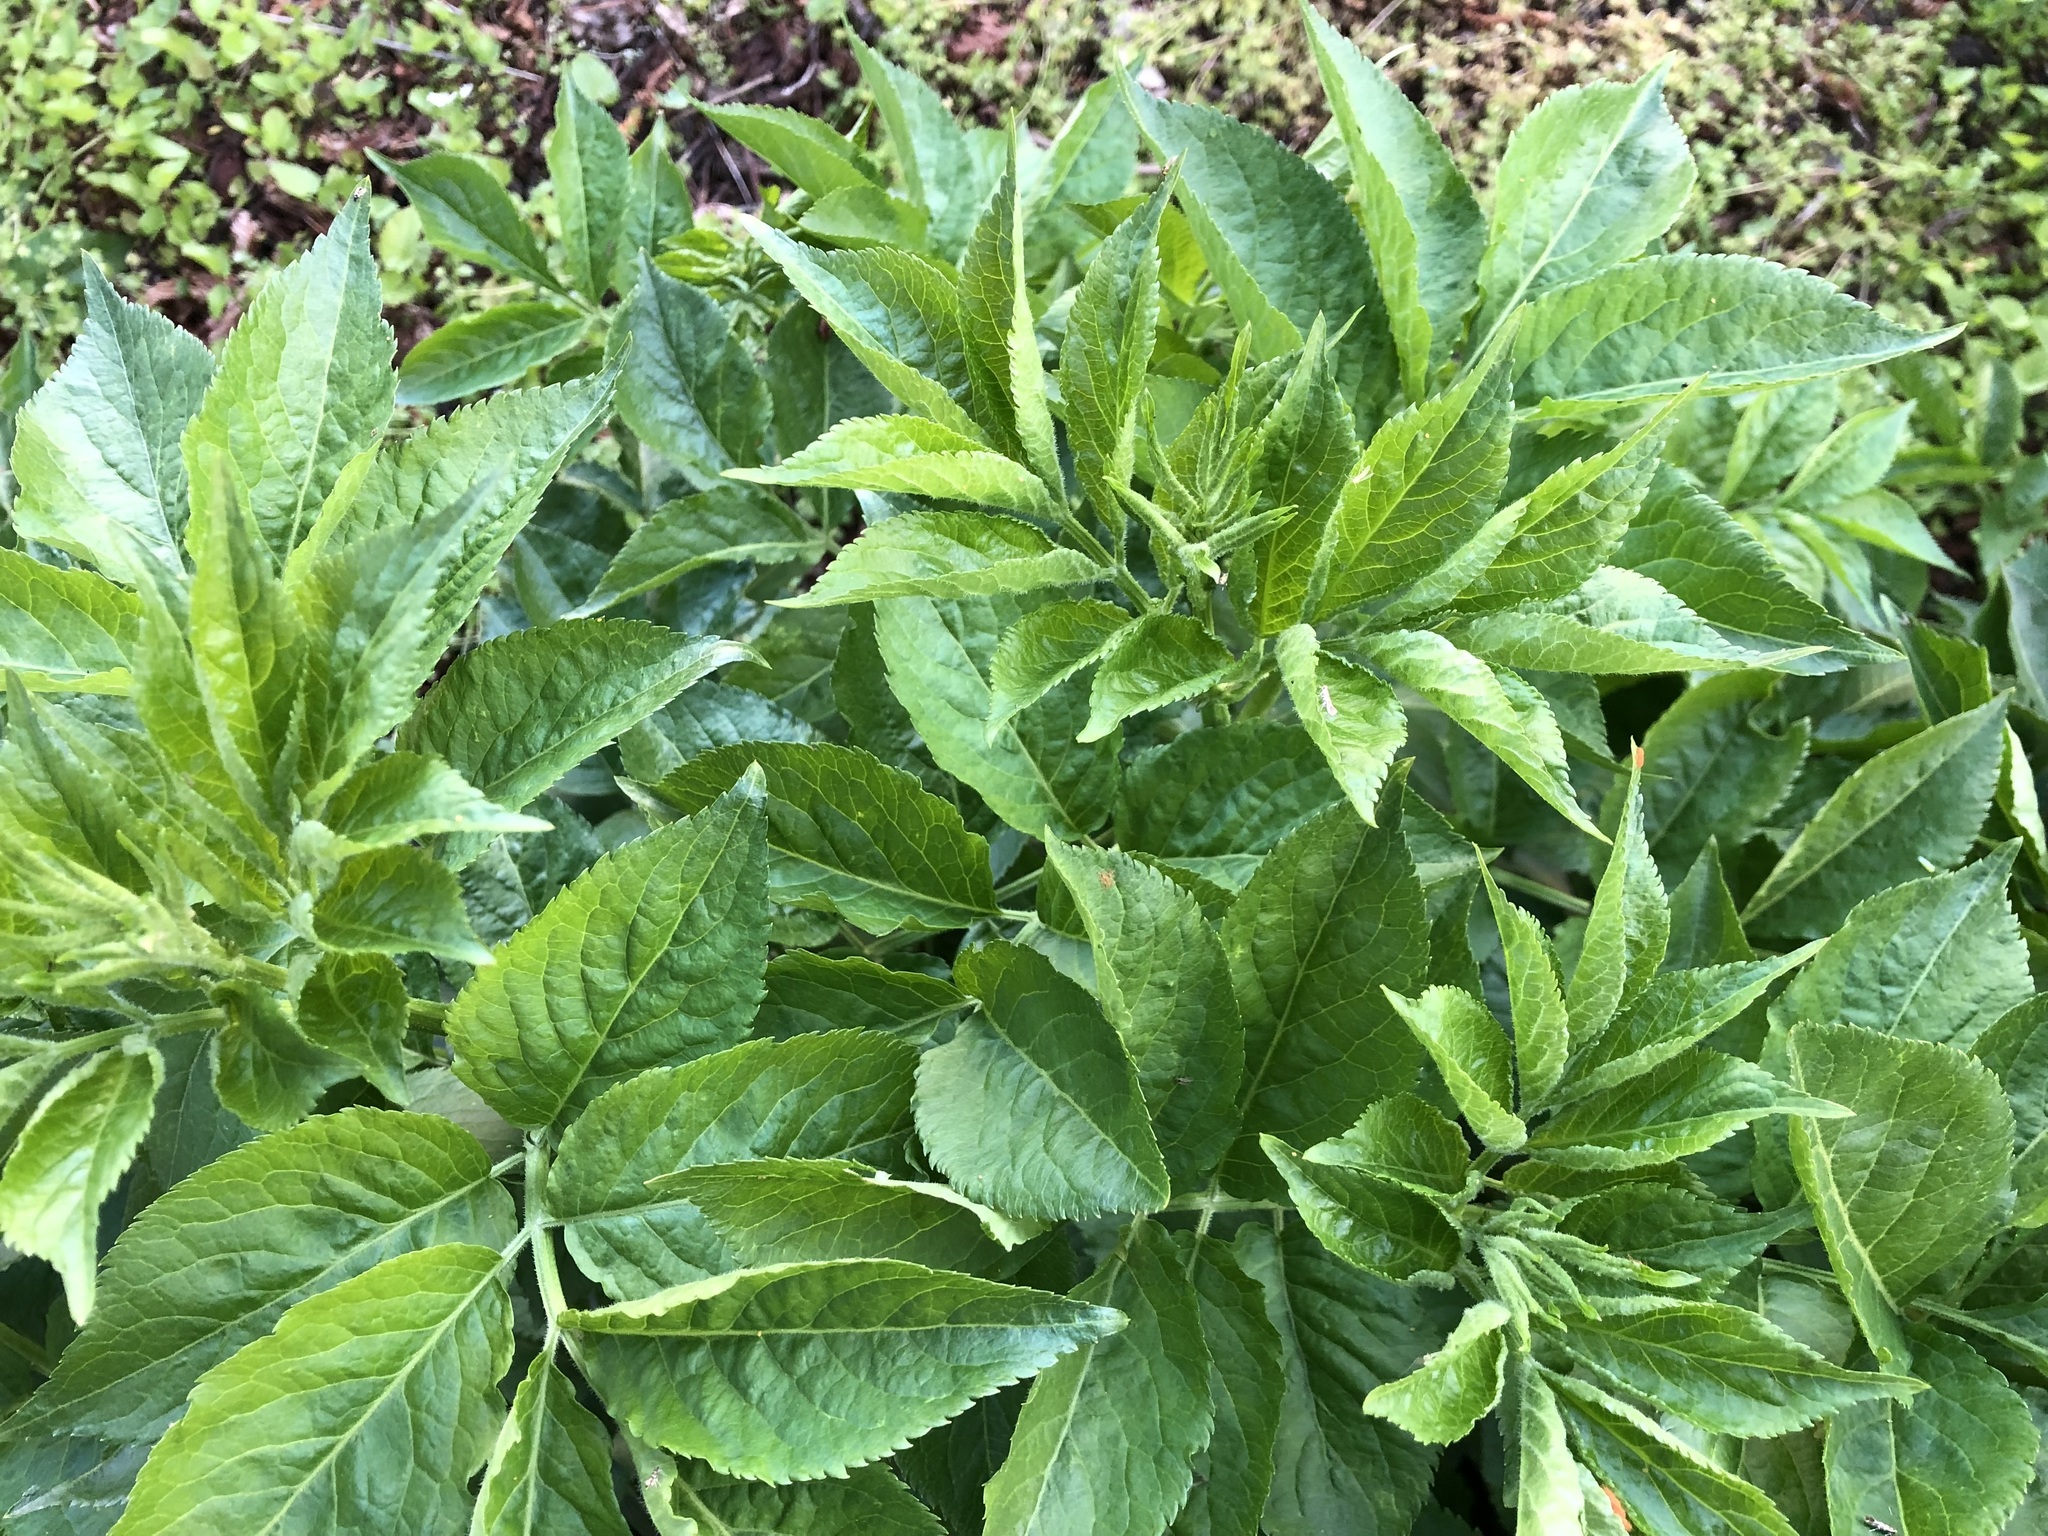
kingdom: Plantae
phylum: Tracheophyta
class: Magnoliopsida
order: Dipsacales
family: Viburnaceae
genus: Sambucus
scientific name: Sambucus nigra
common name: Elder
